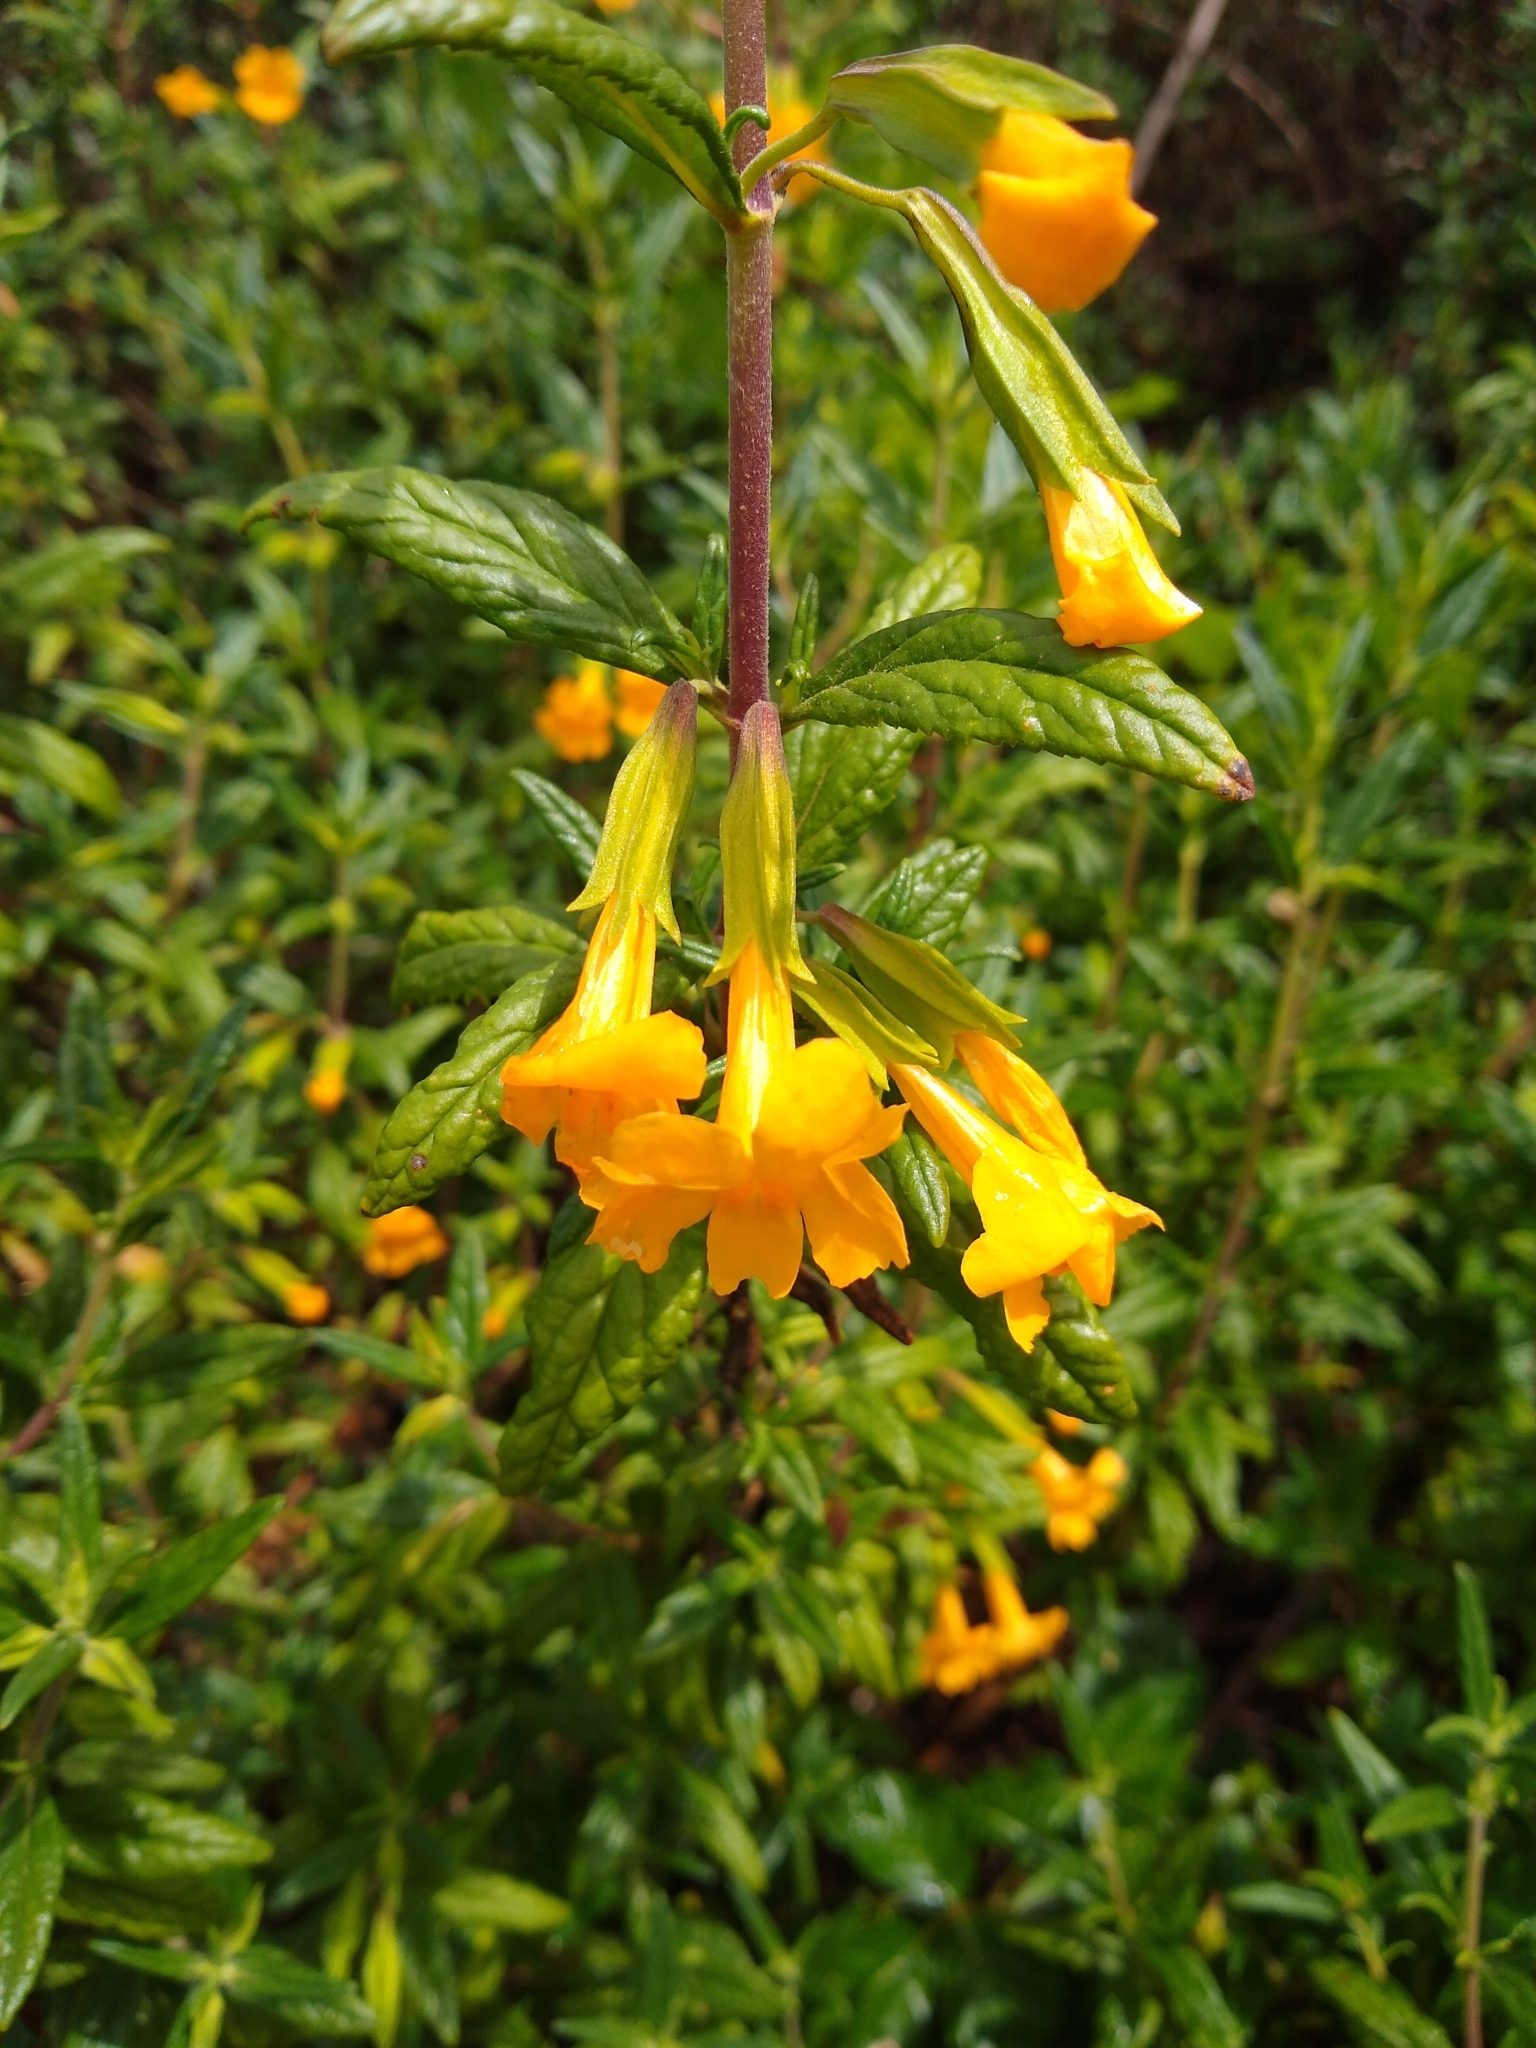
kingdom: Plantae
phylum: Tracheophyta
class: Magnoliopsida
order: Lamiales
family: Phrymaceae
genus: Diplacus
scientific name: Diplacus aurantiacus
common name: Bush monkey-flower
